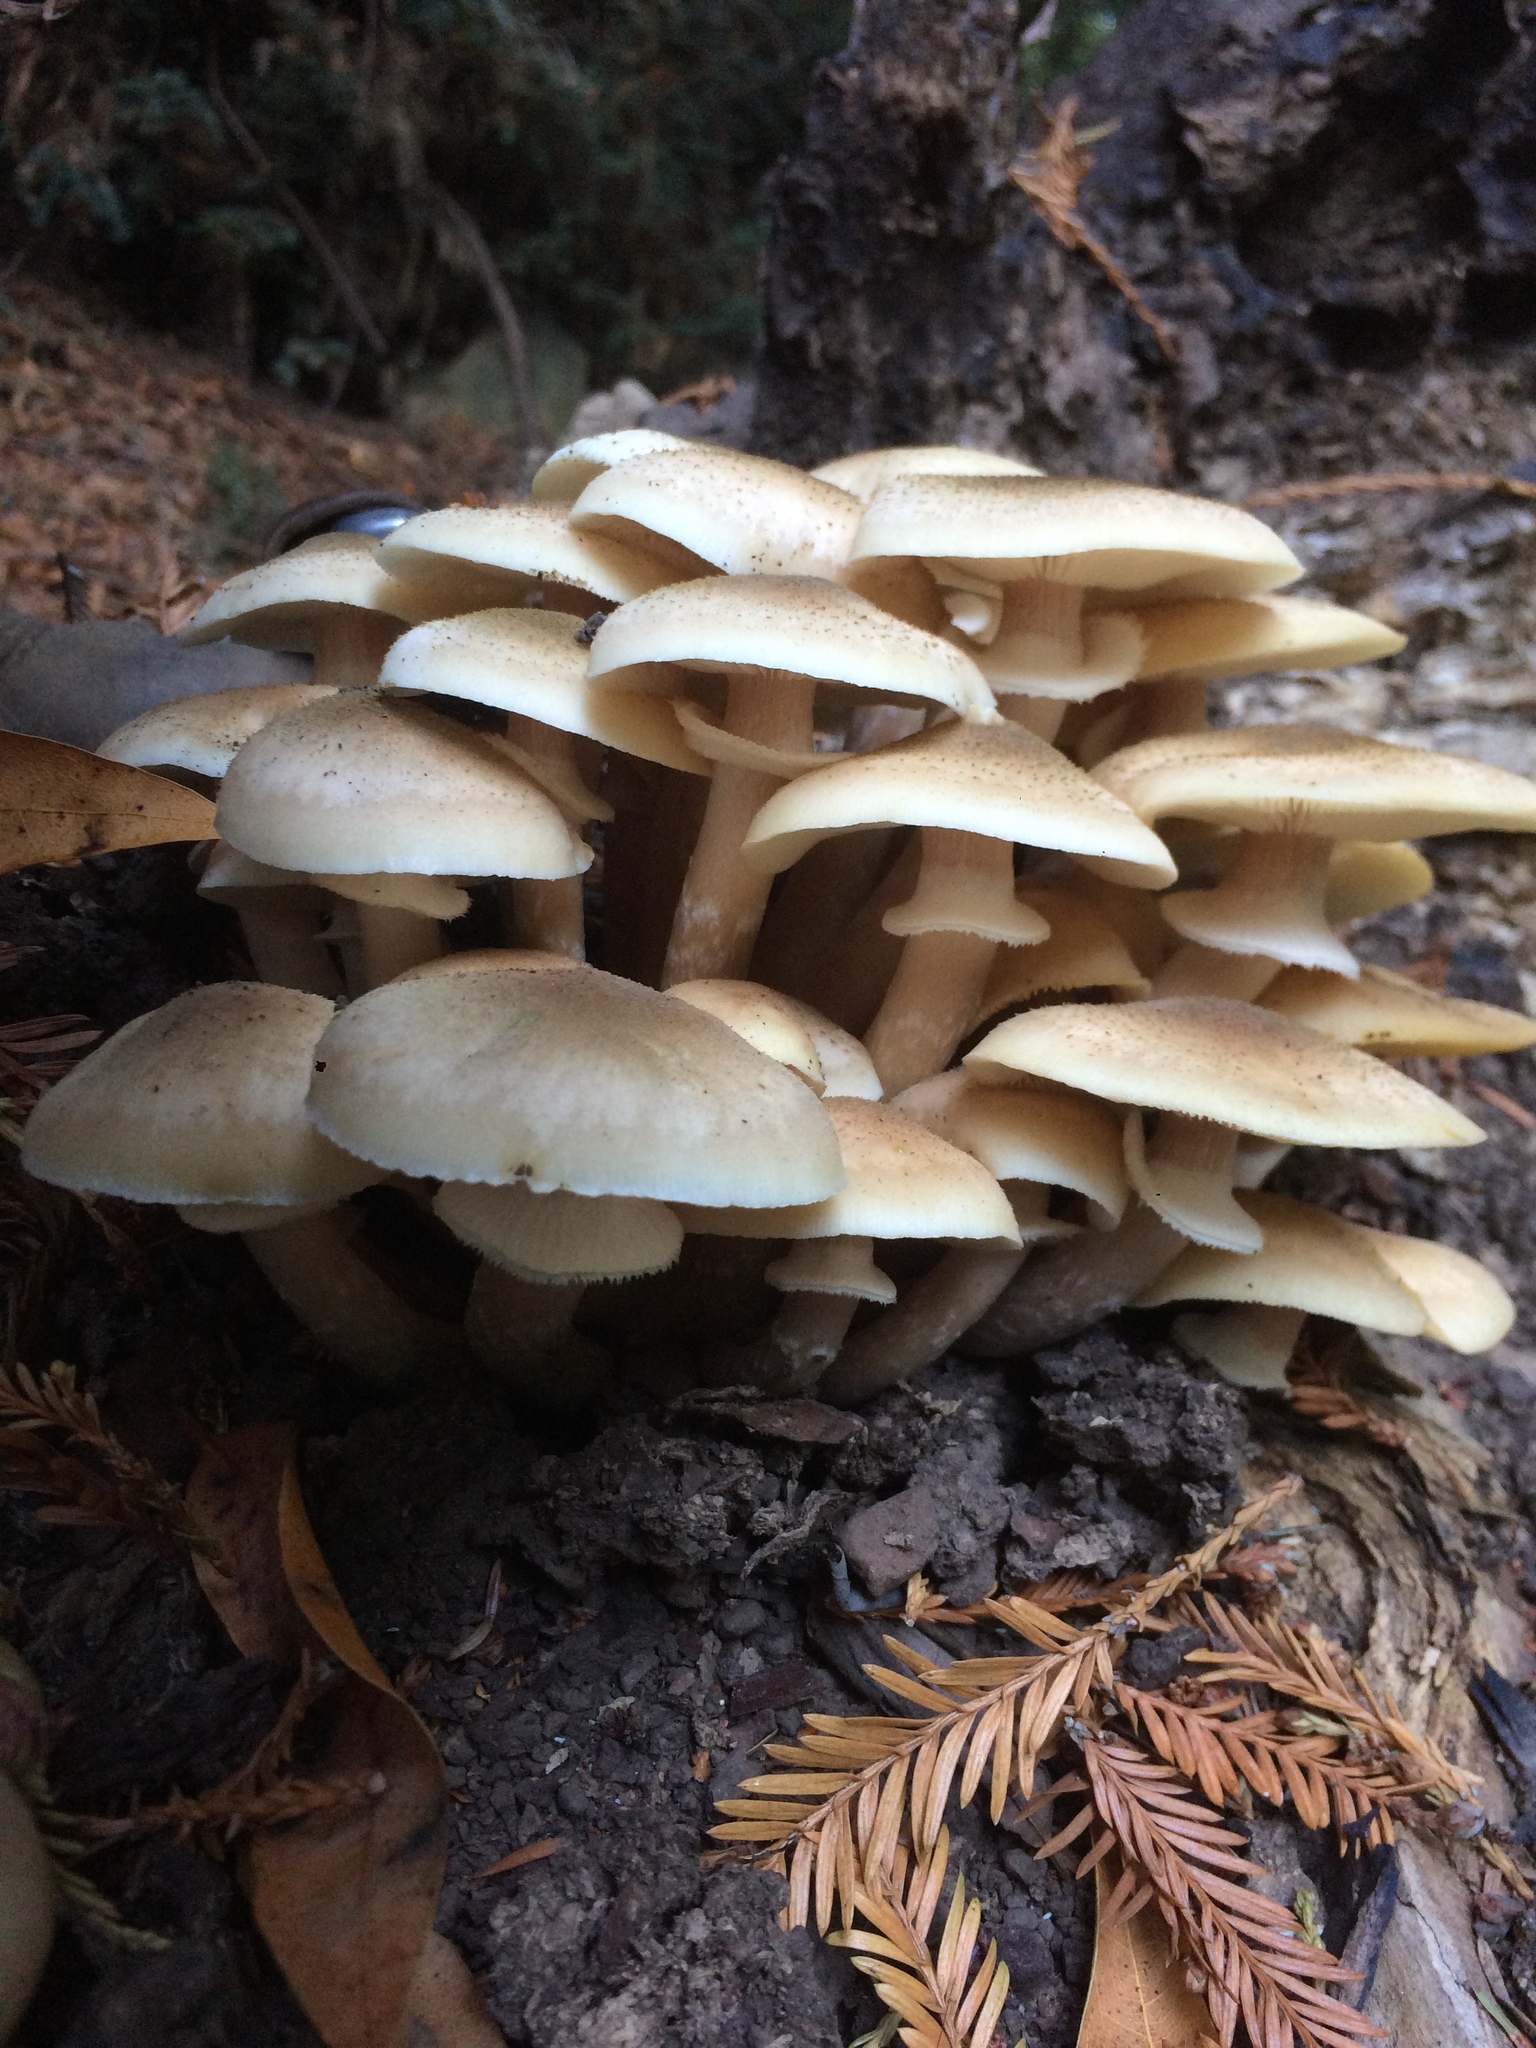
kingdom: Fungi
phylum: Basidiomycota
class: Agaricomycetes
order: Agaricales
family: Physalacriaceae
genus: Armillaria
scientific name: Armillaria mellea
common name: Honey fungus
